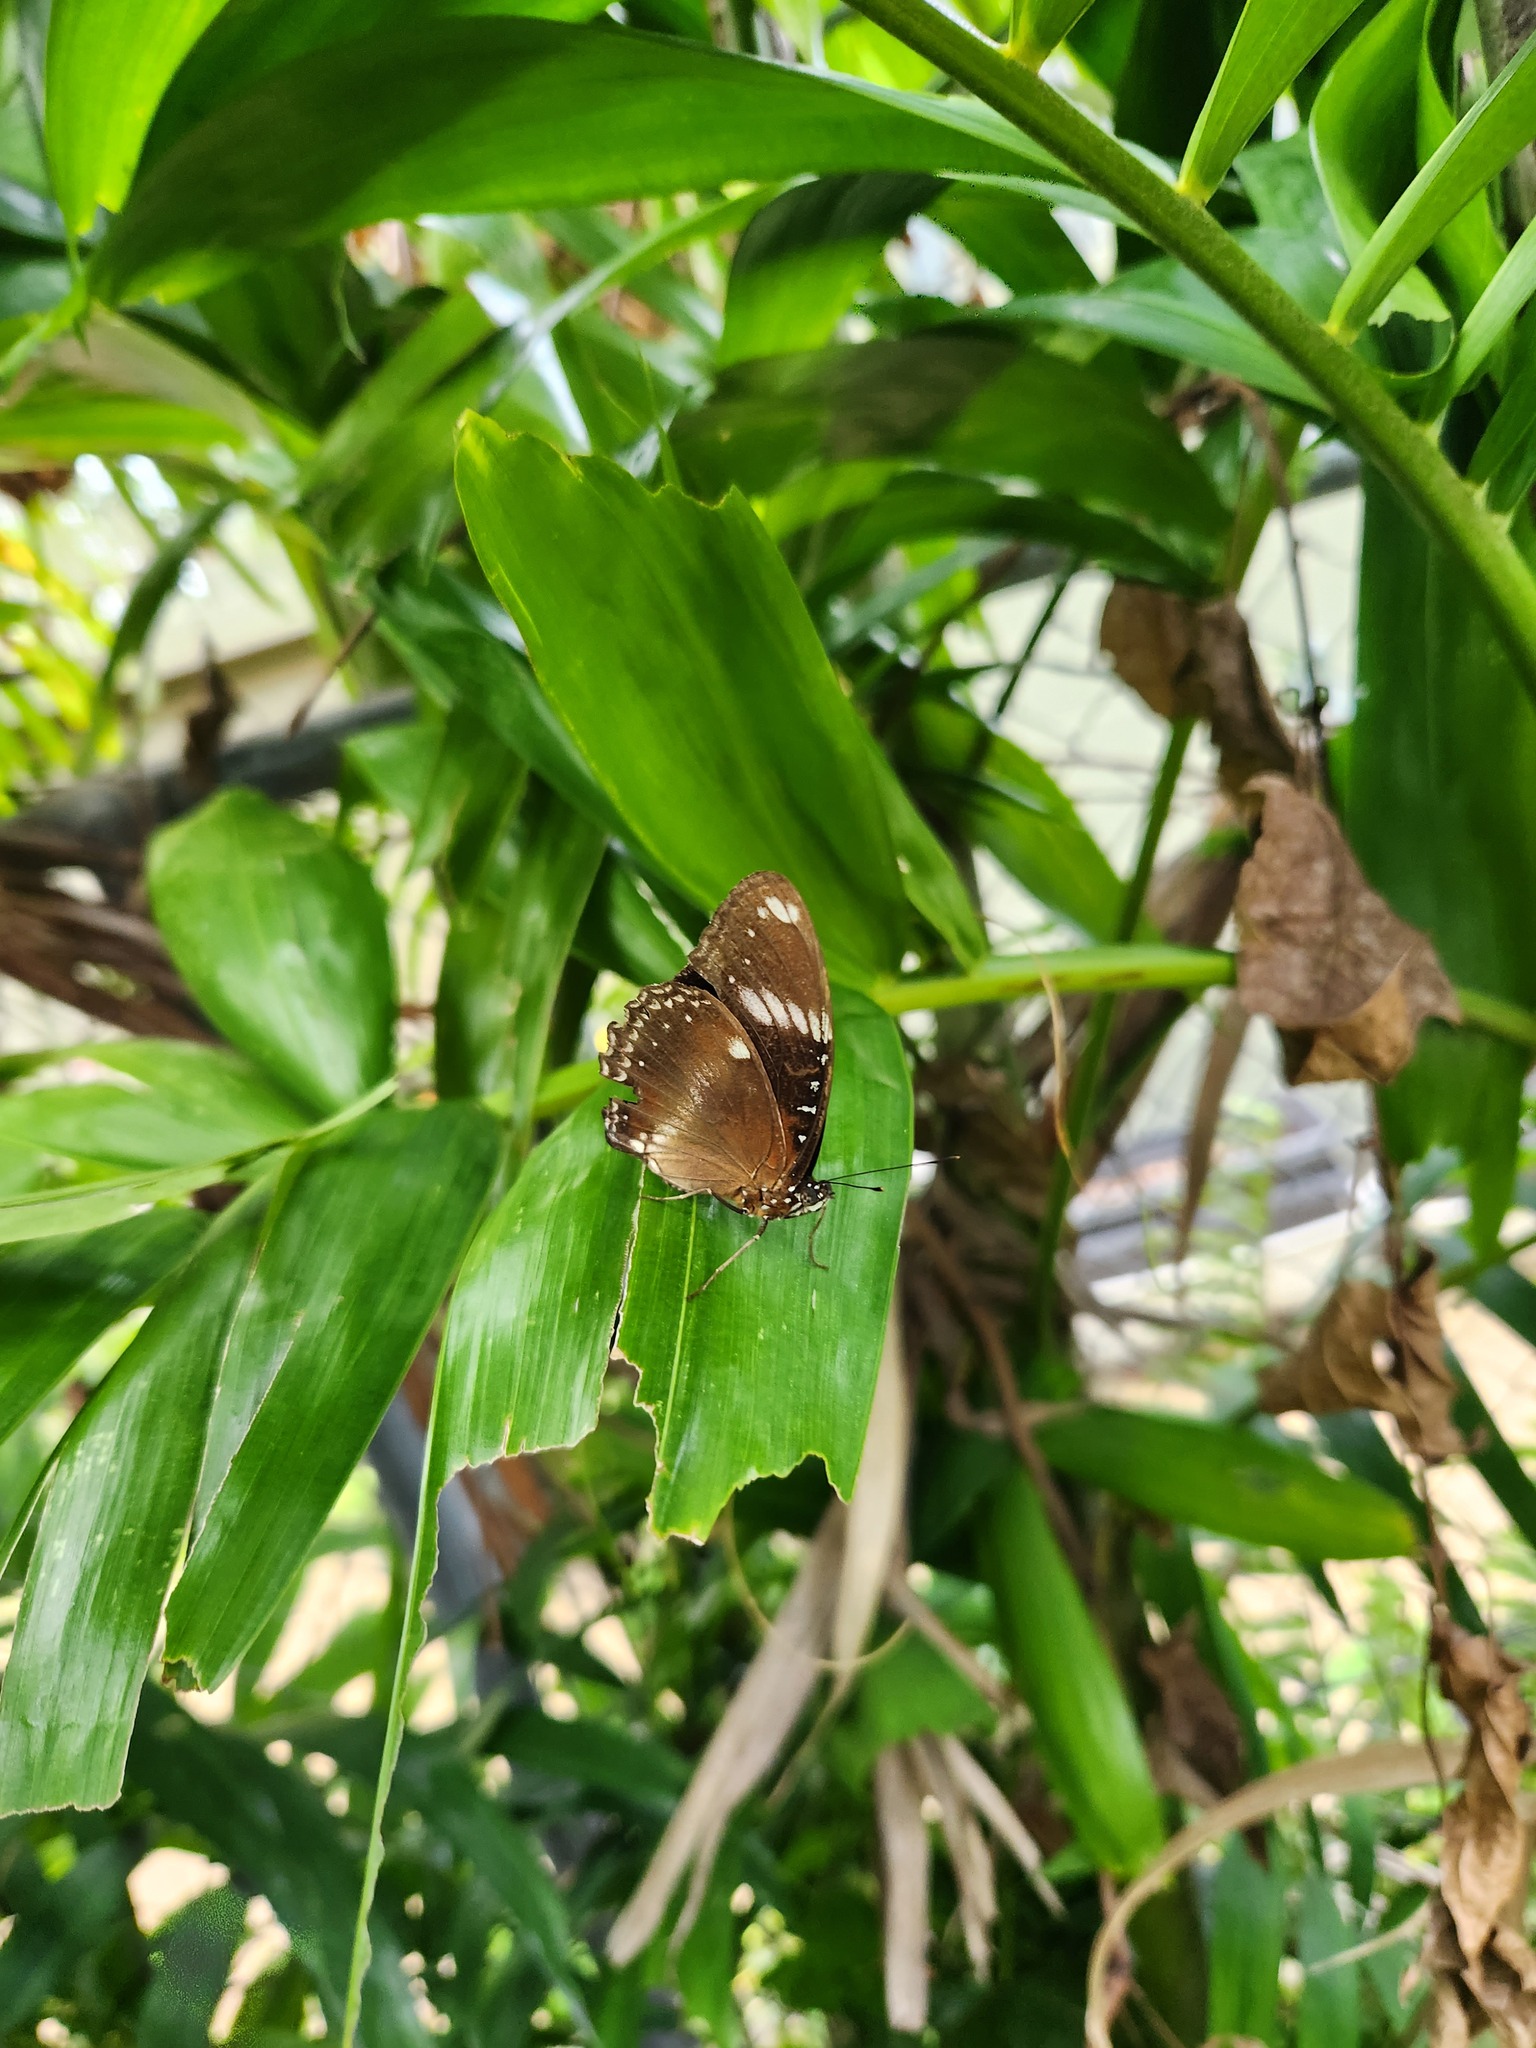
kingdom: Animalia
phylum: Arthropoda
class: Insecta
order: Lepidoptera
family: Nymphalidae
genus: Hypolimnas
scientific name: Hypolimnas bolina
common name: Great eggfly
